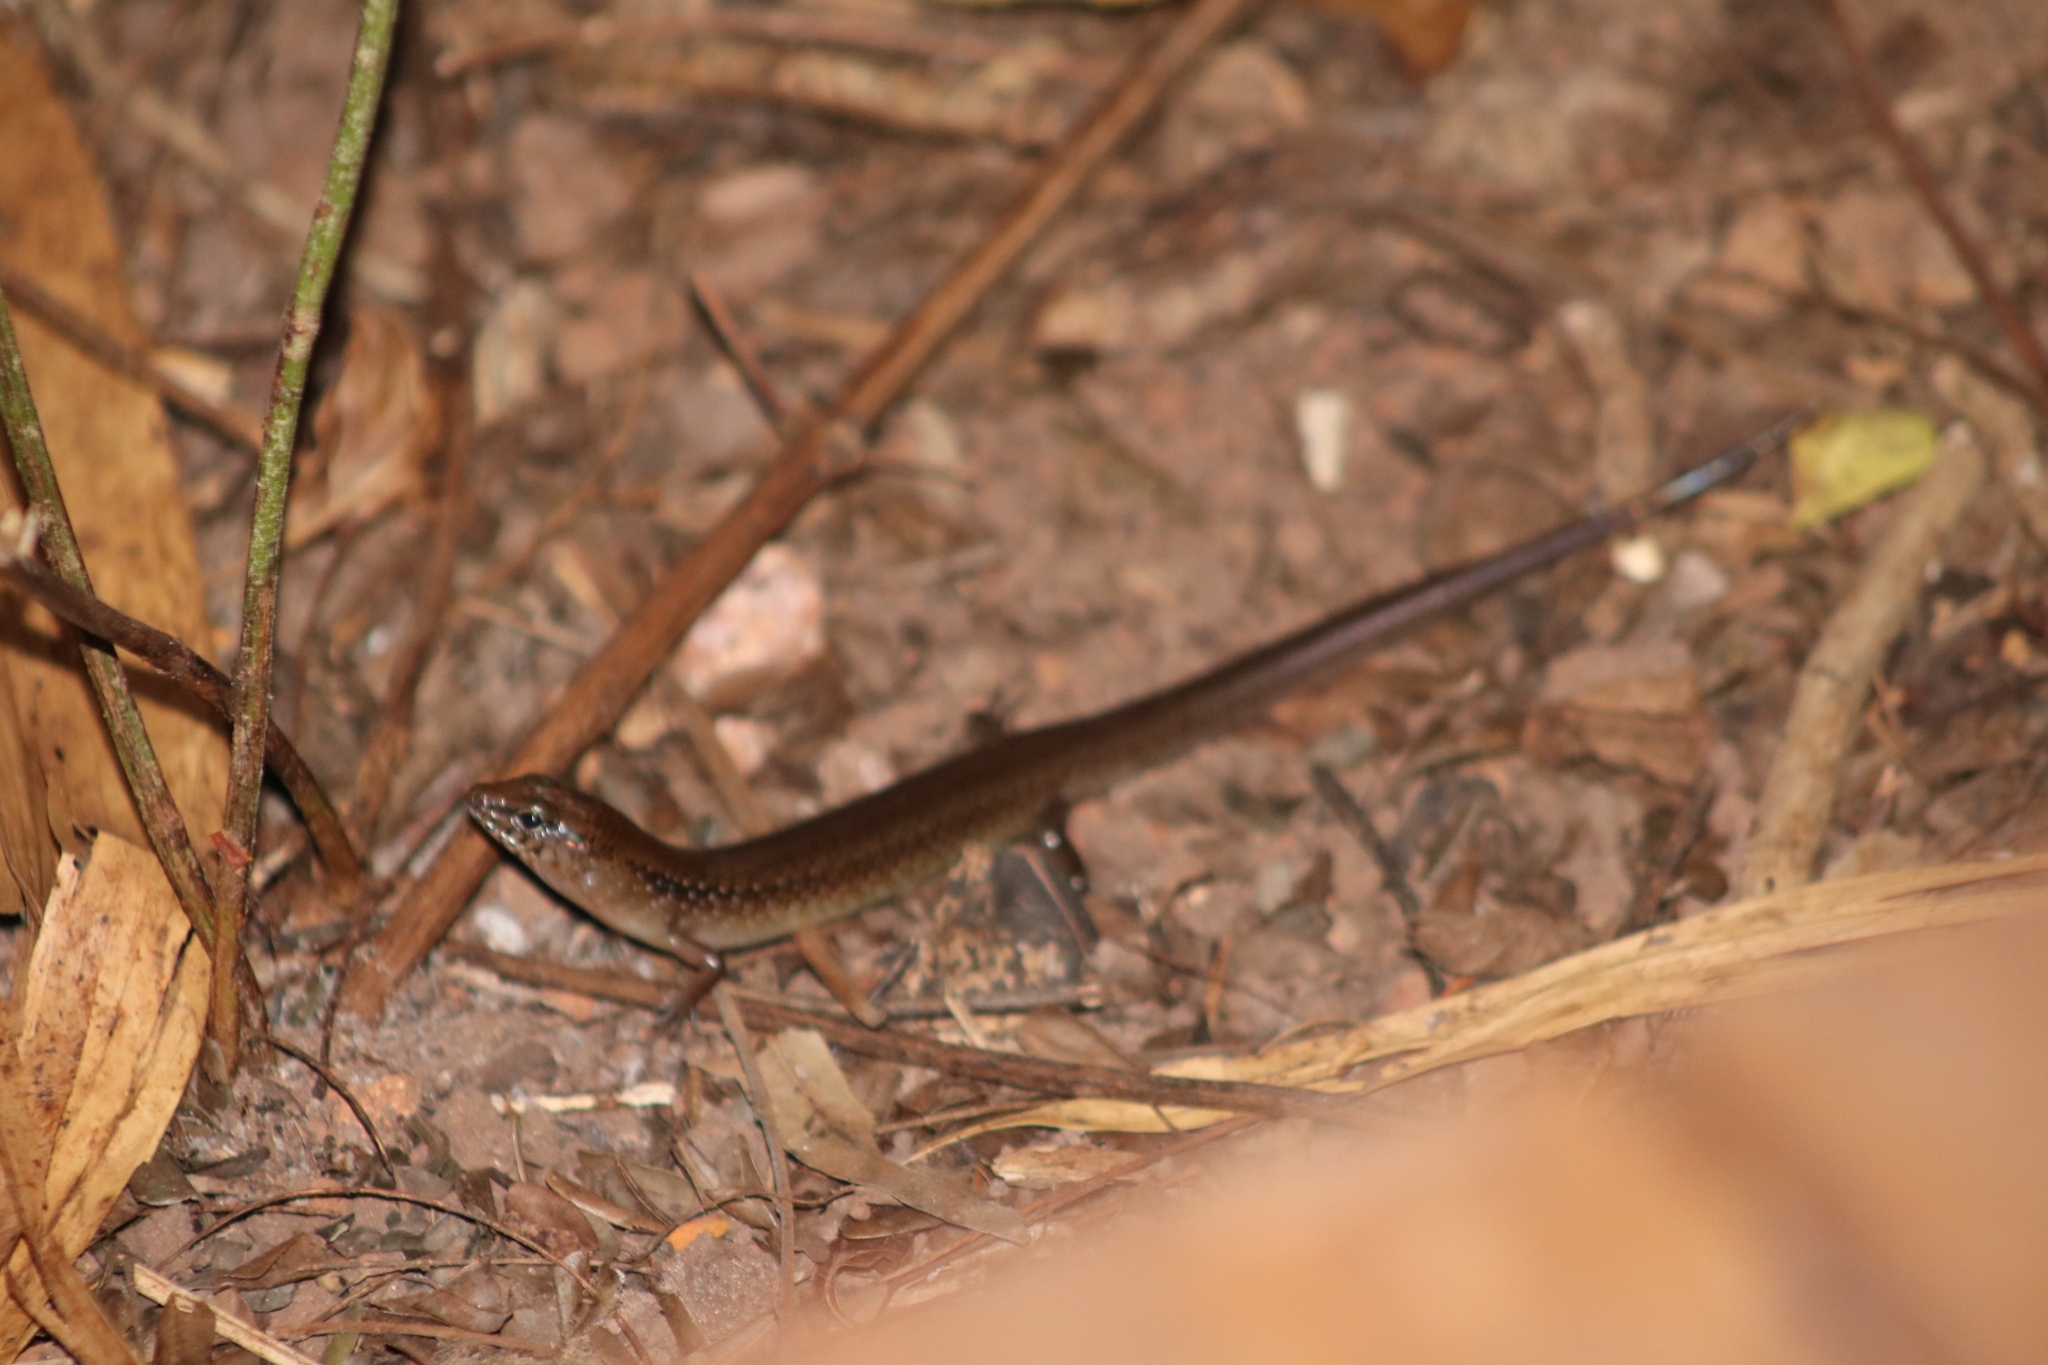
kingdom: Animalia
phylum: Chordata
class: Squamata
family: Scincidae
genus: Eremiascincus
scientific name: Eremiascincus douglasi
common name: Orange-sided bar-lipped skink
